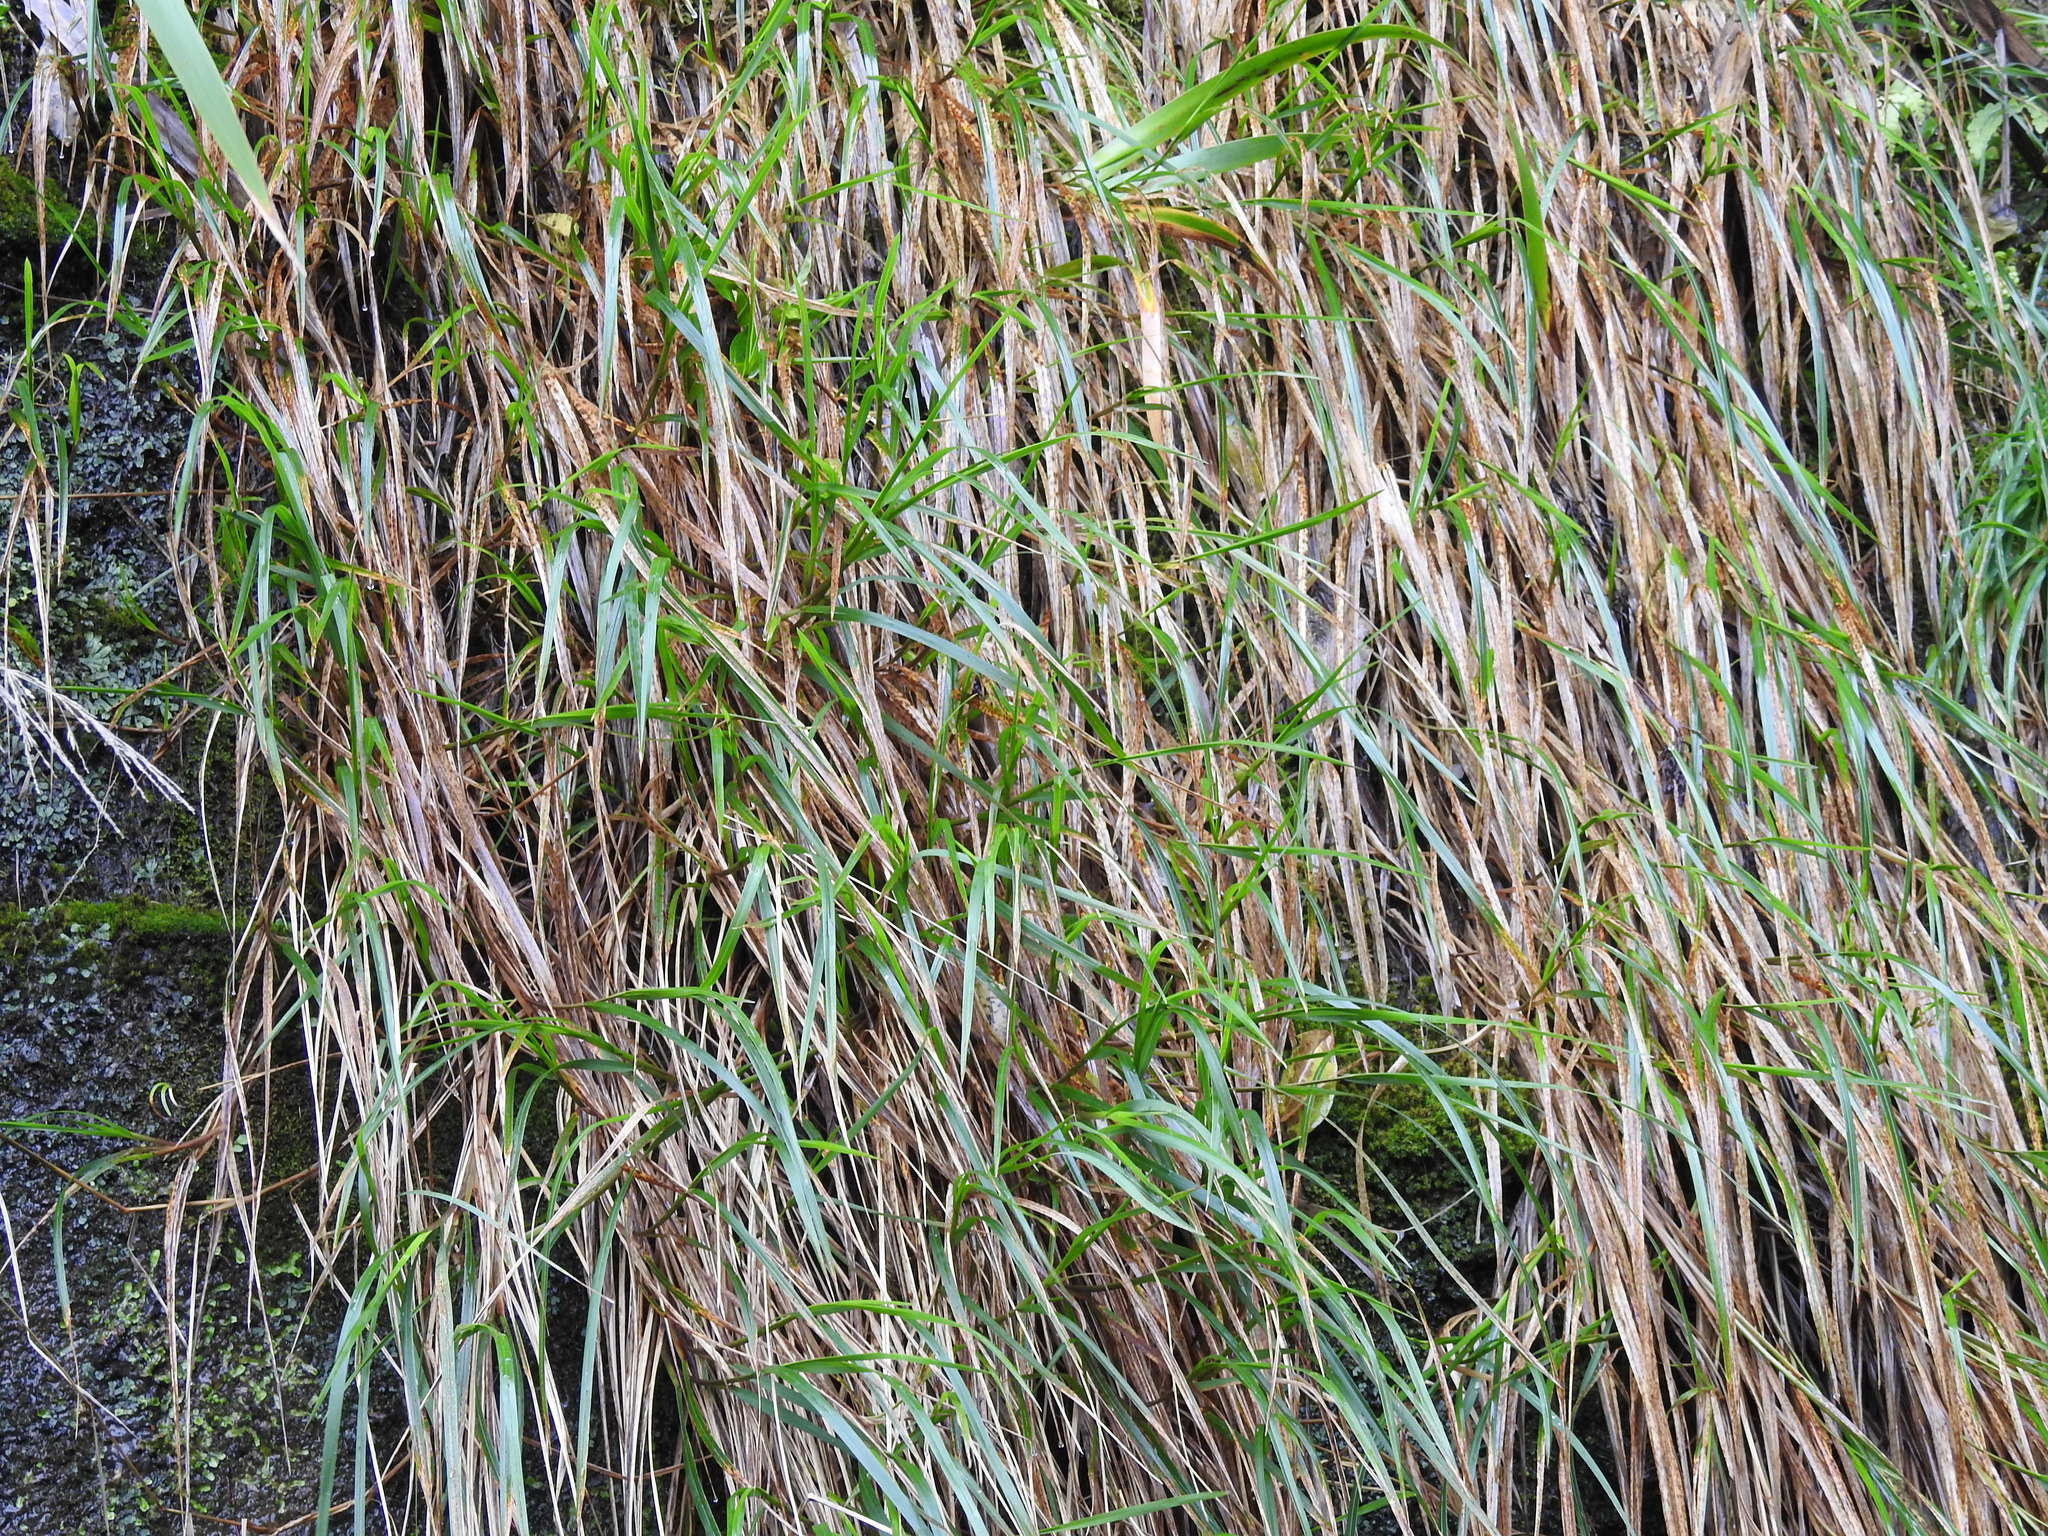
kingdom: Plantae
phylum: Tracheophyta
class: Liliopsida
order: Poales
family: Poaceae
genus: Poa
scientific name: Poa anceps
